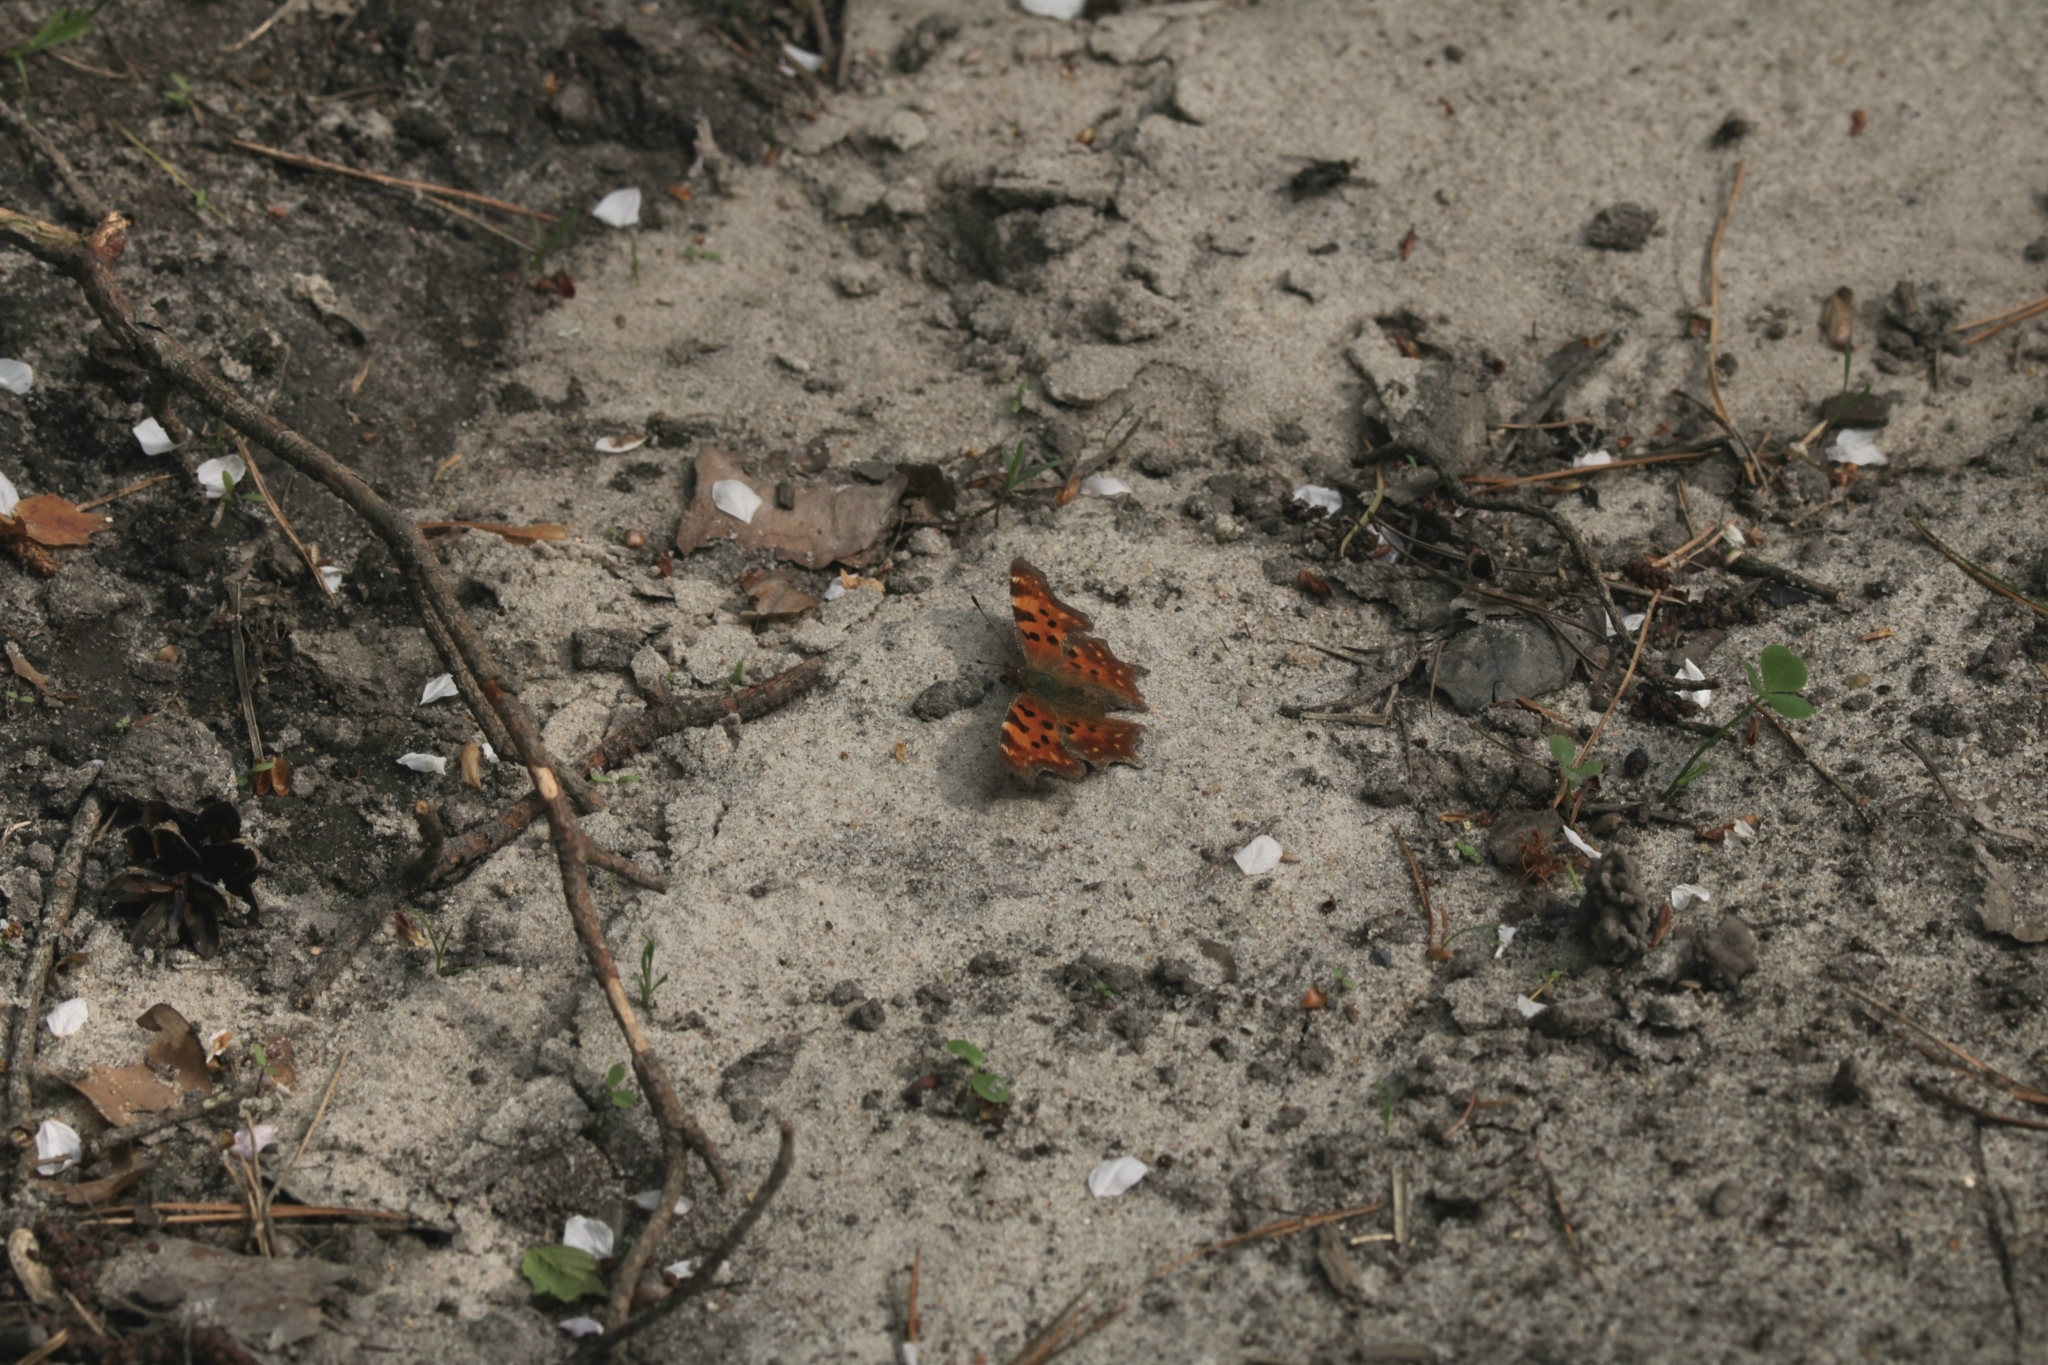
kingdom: Animalia
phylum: Arthropoda
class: Insecta
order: Lepidoptera
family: Nymphalidae
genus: Polygonia
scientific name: Polygonia c-album
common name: Comma
